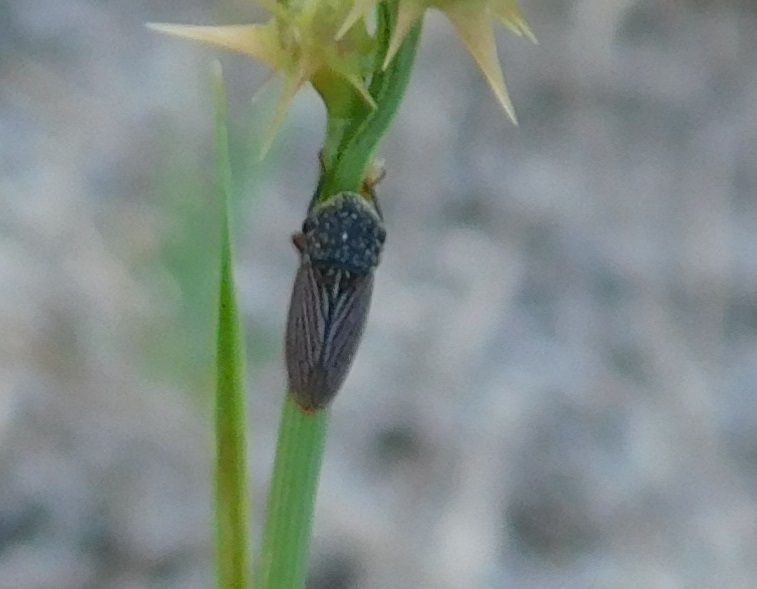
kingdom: Animalia
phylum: Arthropoda
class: Insecta
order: Hemiptera
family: Cicadellidae
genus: Cuerna
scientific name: Cuerna costalis
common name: Lateral-lined sharpshooter
